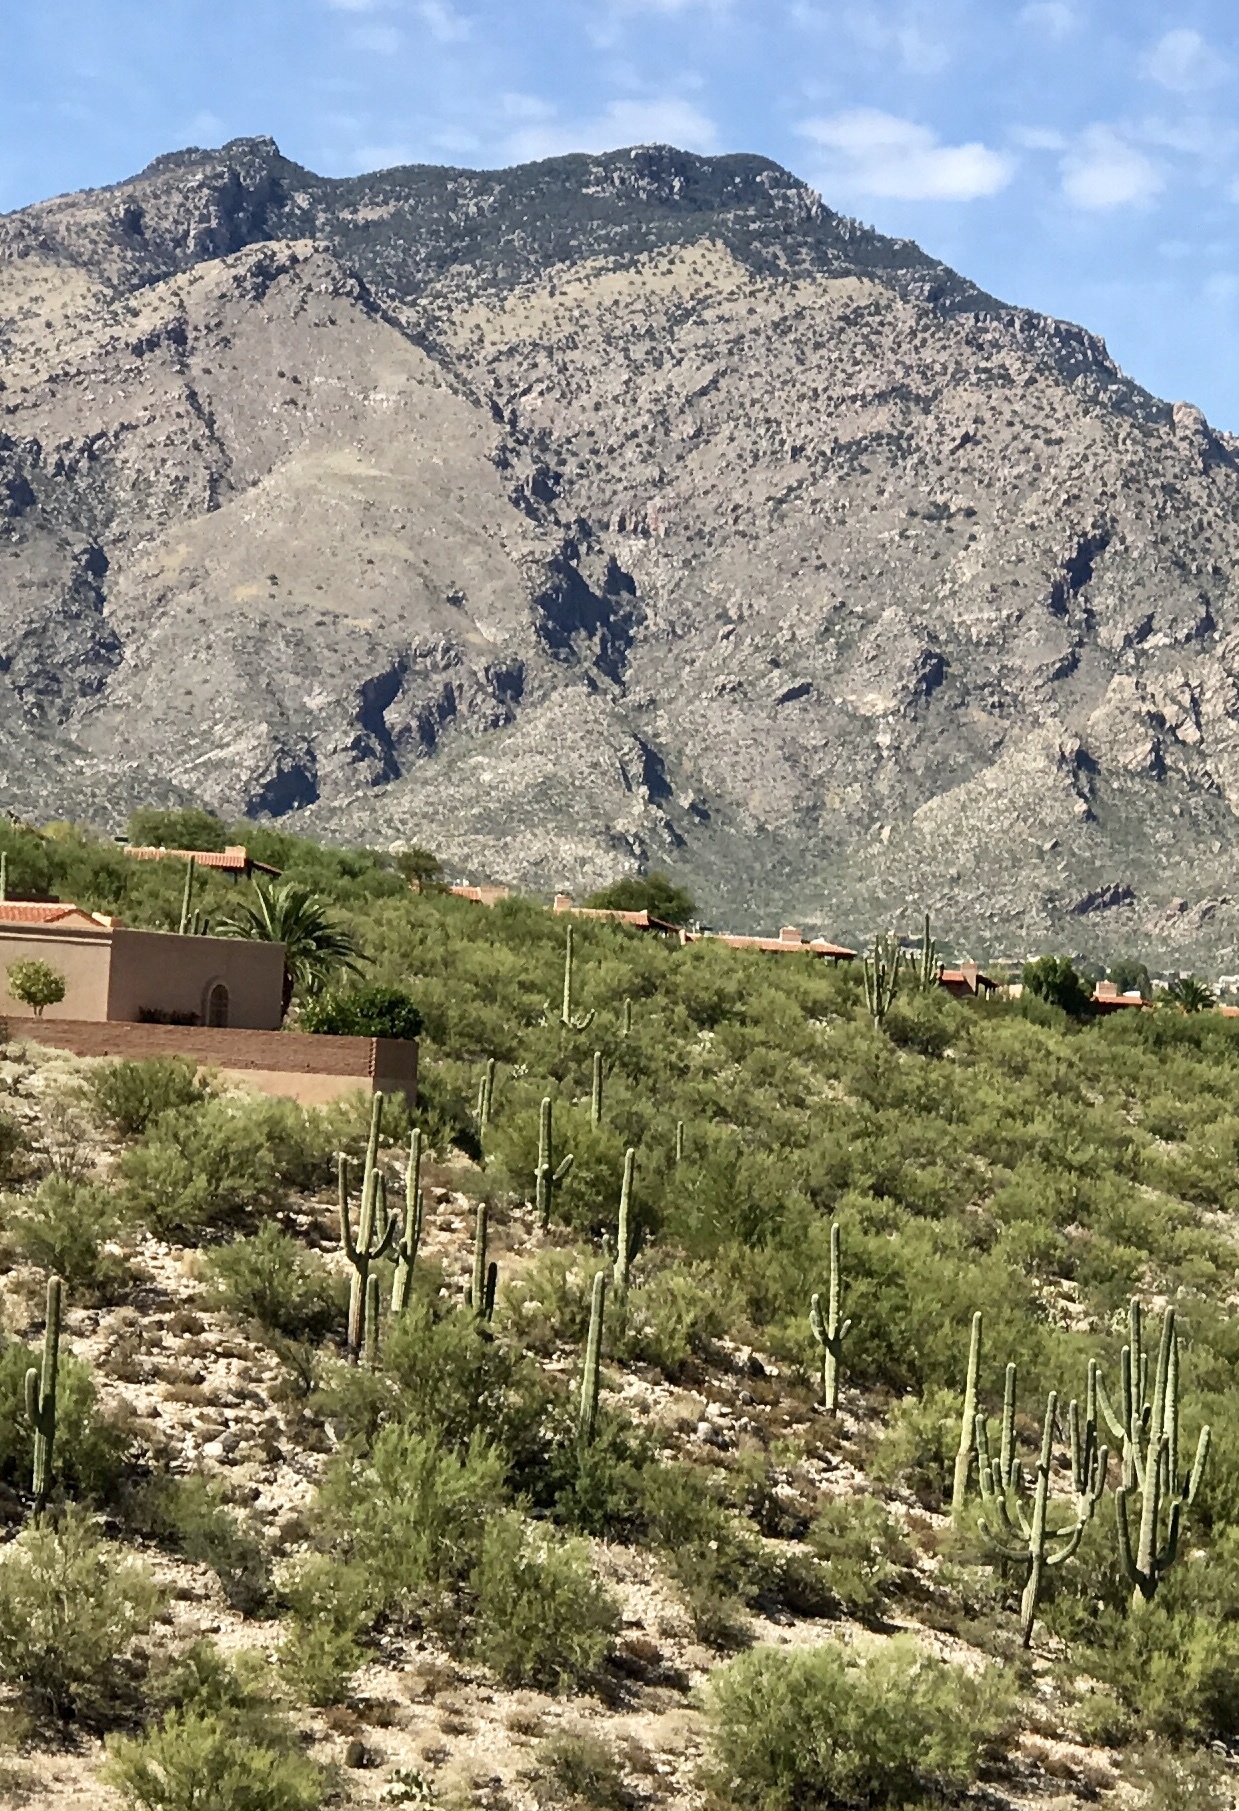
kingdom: Plantae
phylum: Tracheophyta
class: Magnoliopsida
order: Caryophyllales
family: Cactaceae
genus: Carnegiea
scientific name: Carnegiea gigantea
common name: Saguaro
